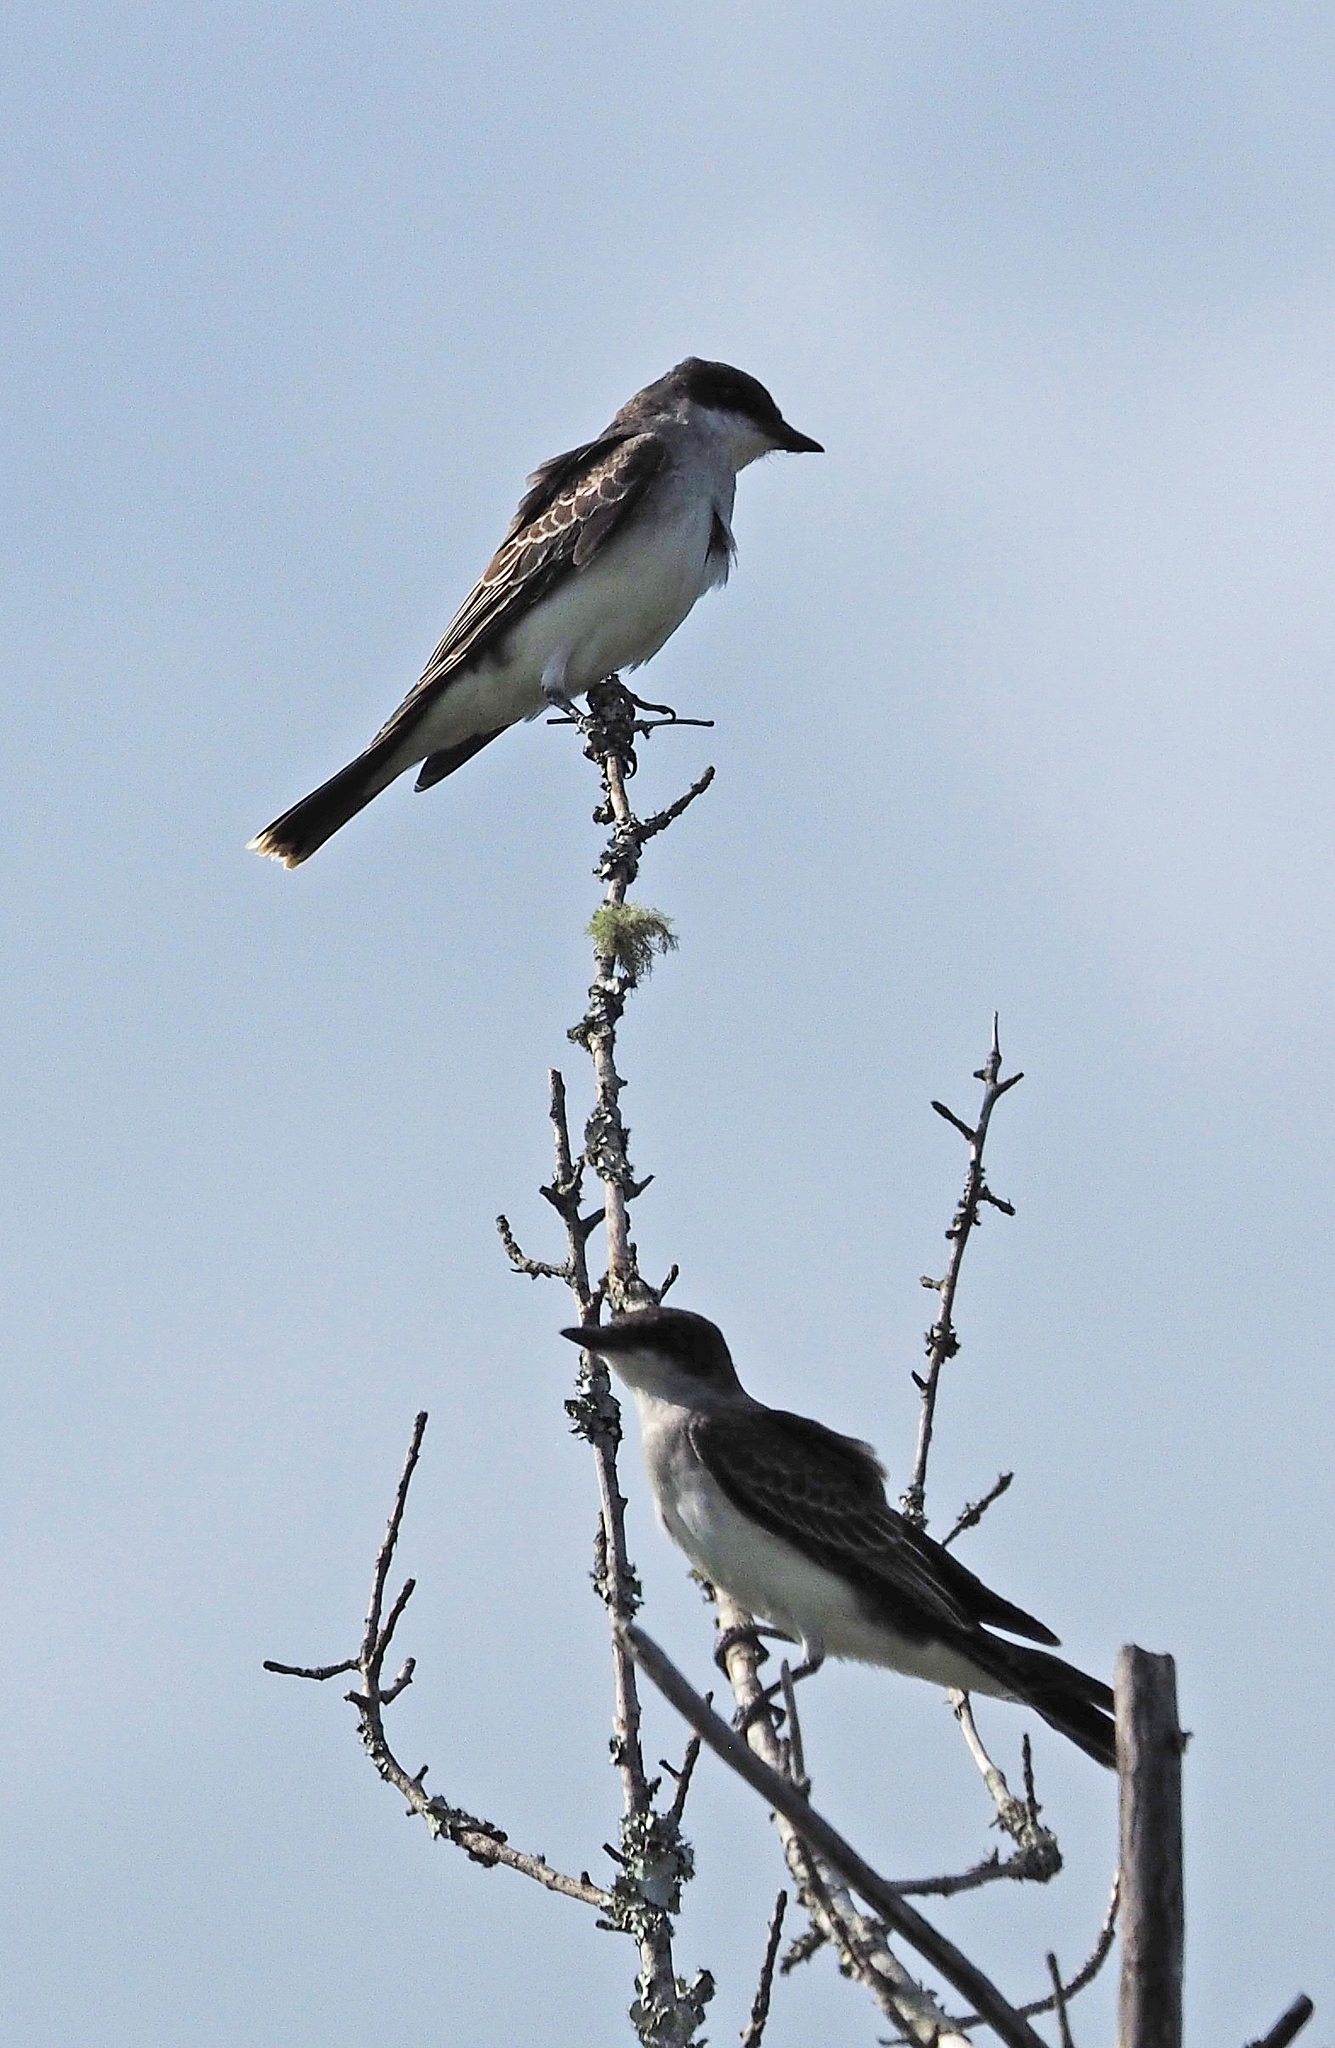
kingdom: Animalia
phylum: Chordata
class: Aves
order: Passeriformes
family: Tyrannidae
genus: Tyrannus
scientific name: Tyrannus tyrannus
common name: Eastern kingbird
